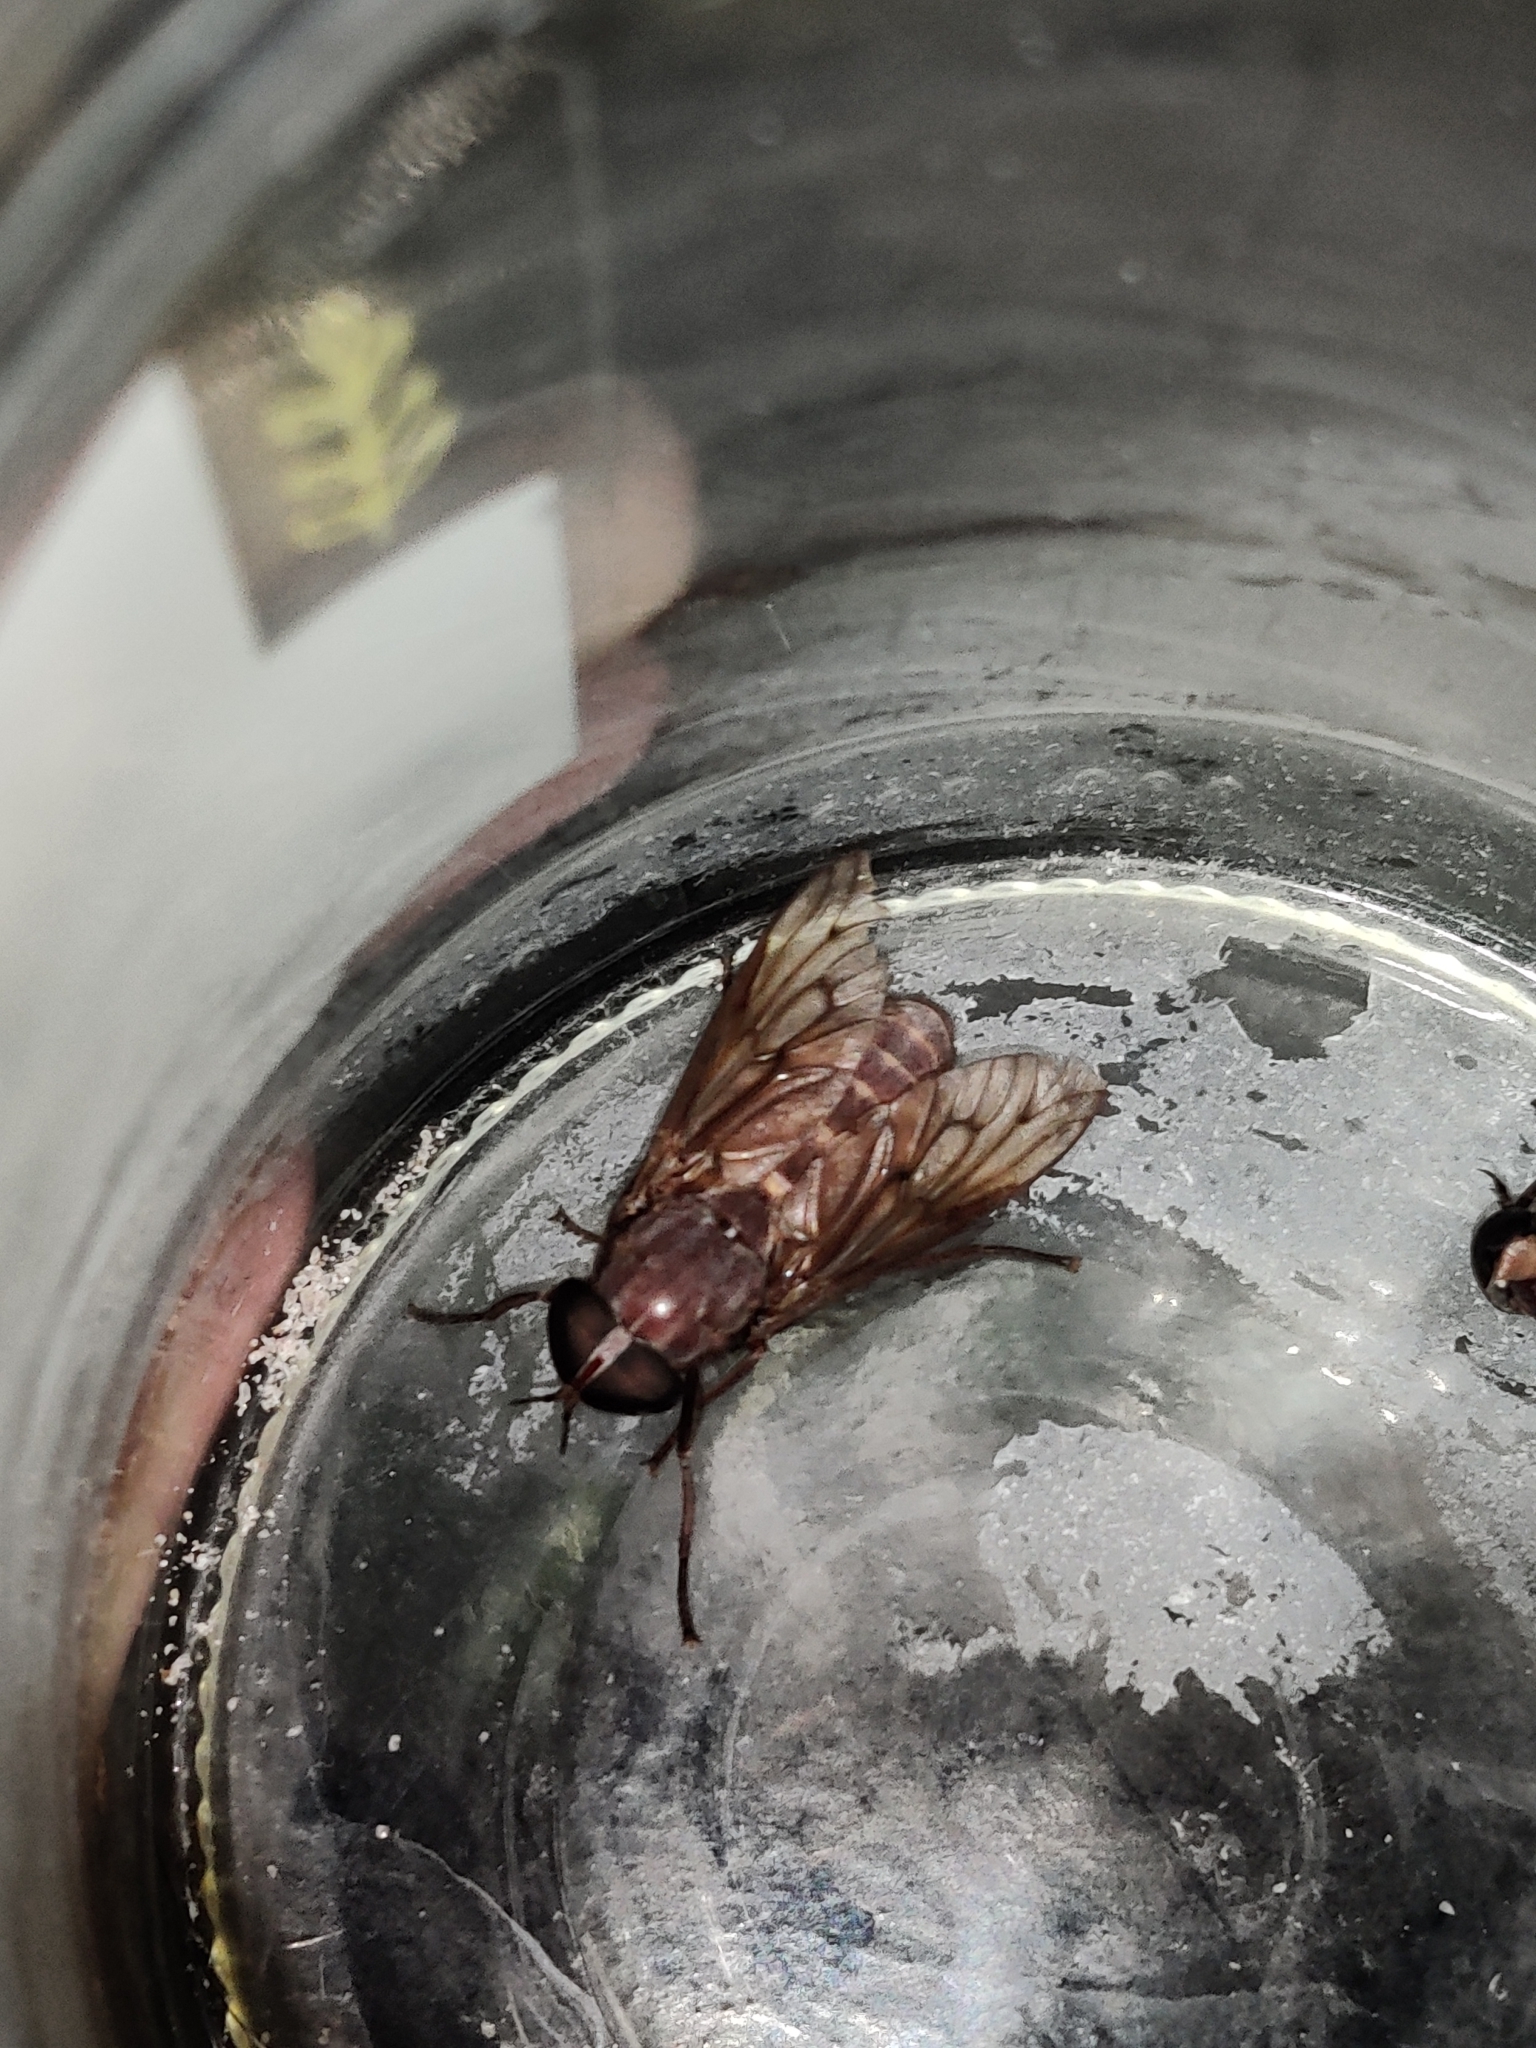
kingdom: Animalia
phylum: Arthropoda
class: Insecta
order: Diptera
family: Tabanidae
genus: Tabanus
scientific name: Tabanus aar
